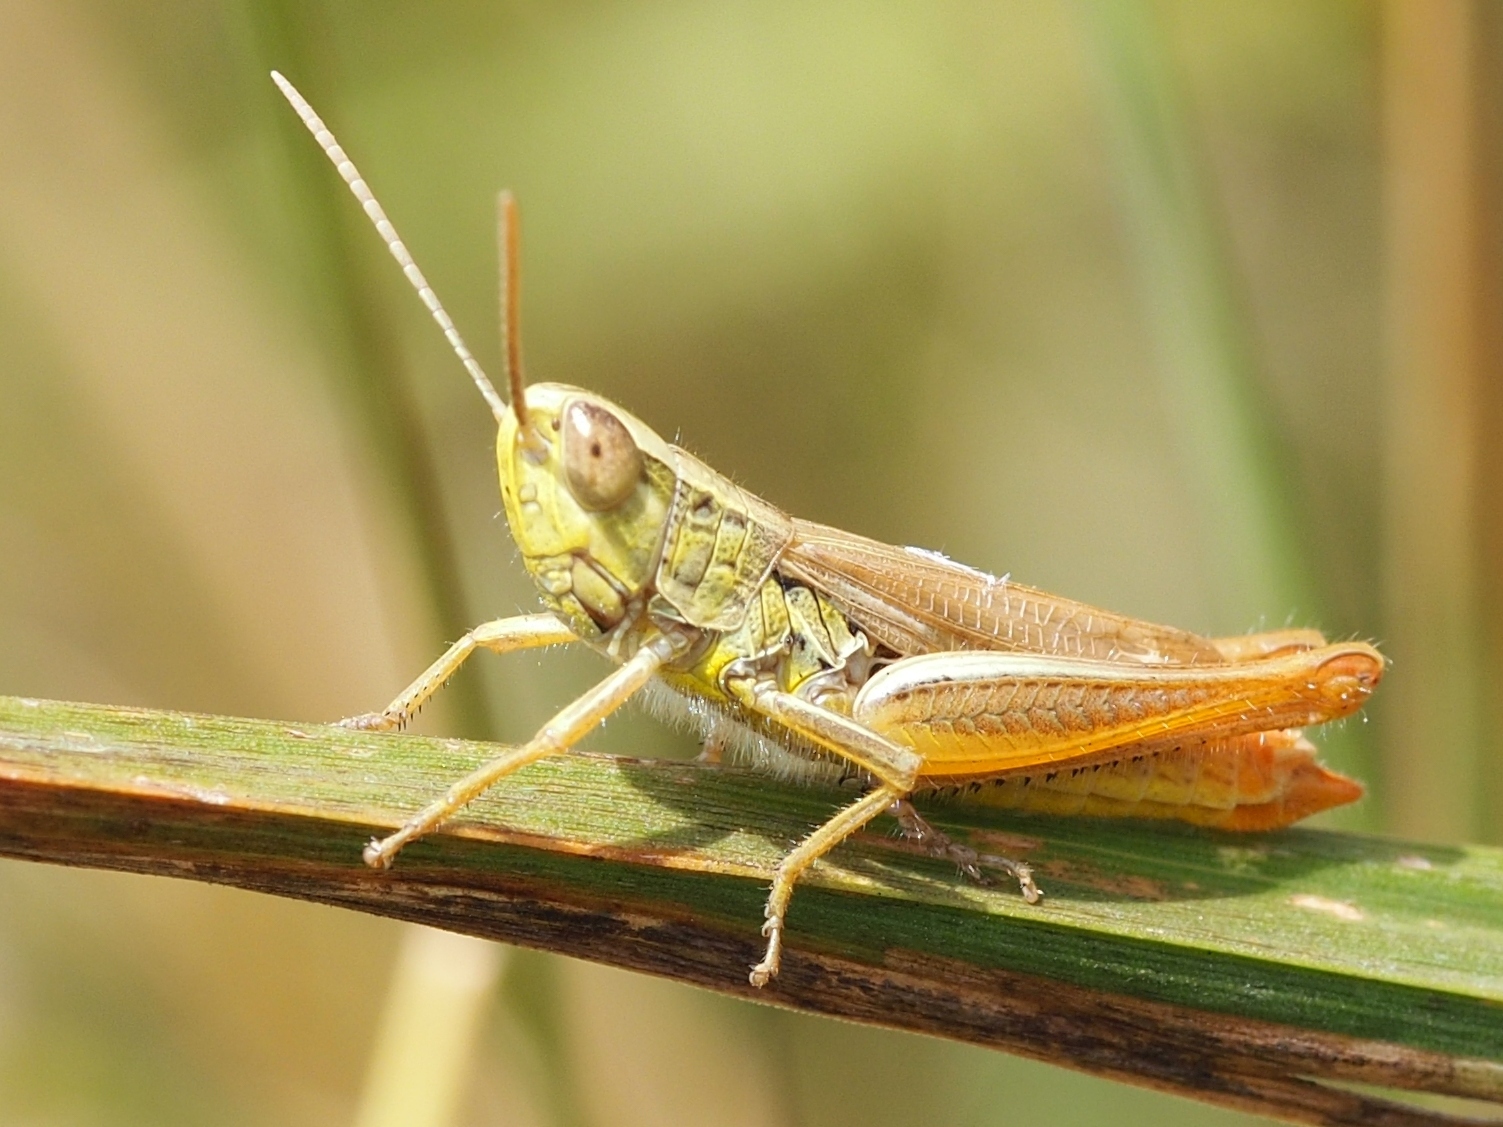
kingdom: Animalia
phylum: Arthropoda
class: Insecta
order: Orthoptera
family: Acrididae
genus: Euchorthippus
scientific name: Euchorthippus declivus
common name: Common straw grasshopper
